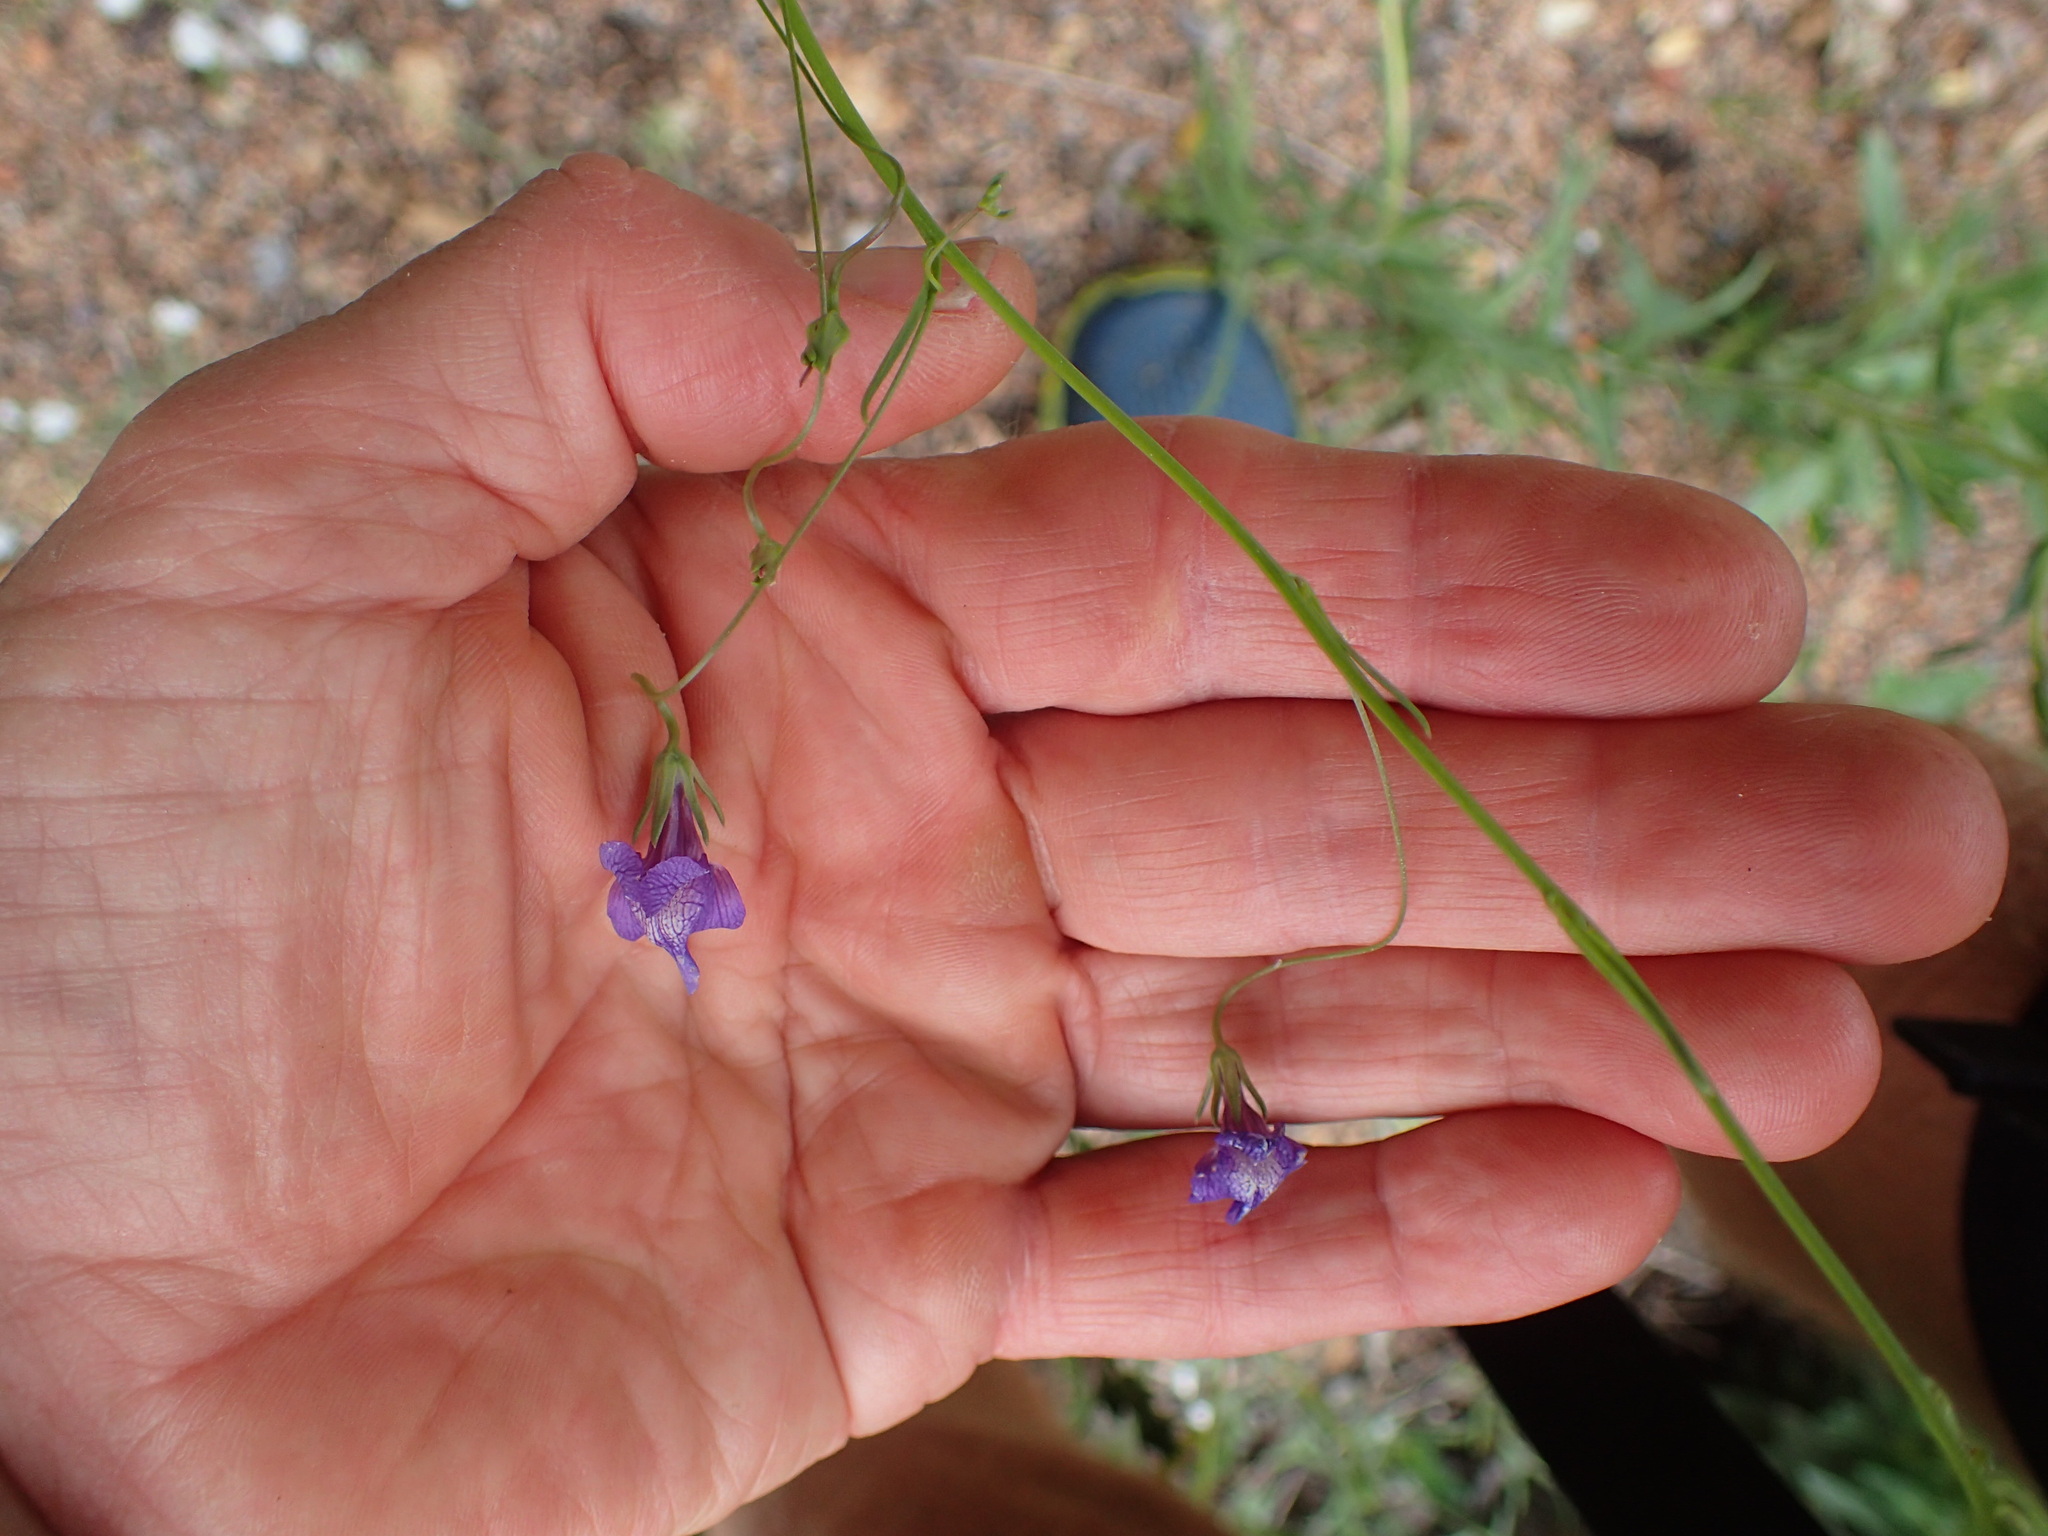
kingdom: Plantae
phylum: Tracheophyta
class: Magnoliopsida
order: Lamiales
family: Plantaginaceae
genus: Neogaerrhinum
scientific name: Neogaerrhinum strictum
